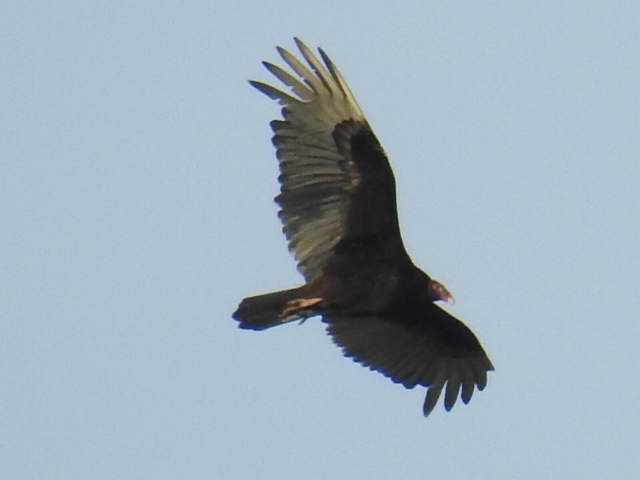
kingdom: Animalia
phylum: Chordata
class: Aves
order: Accipitriformes
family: Cathartidae
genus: Cathartes
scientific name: Cathartes aura
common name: Turkey vulture
